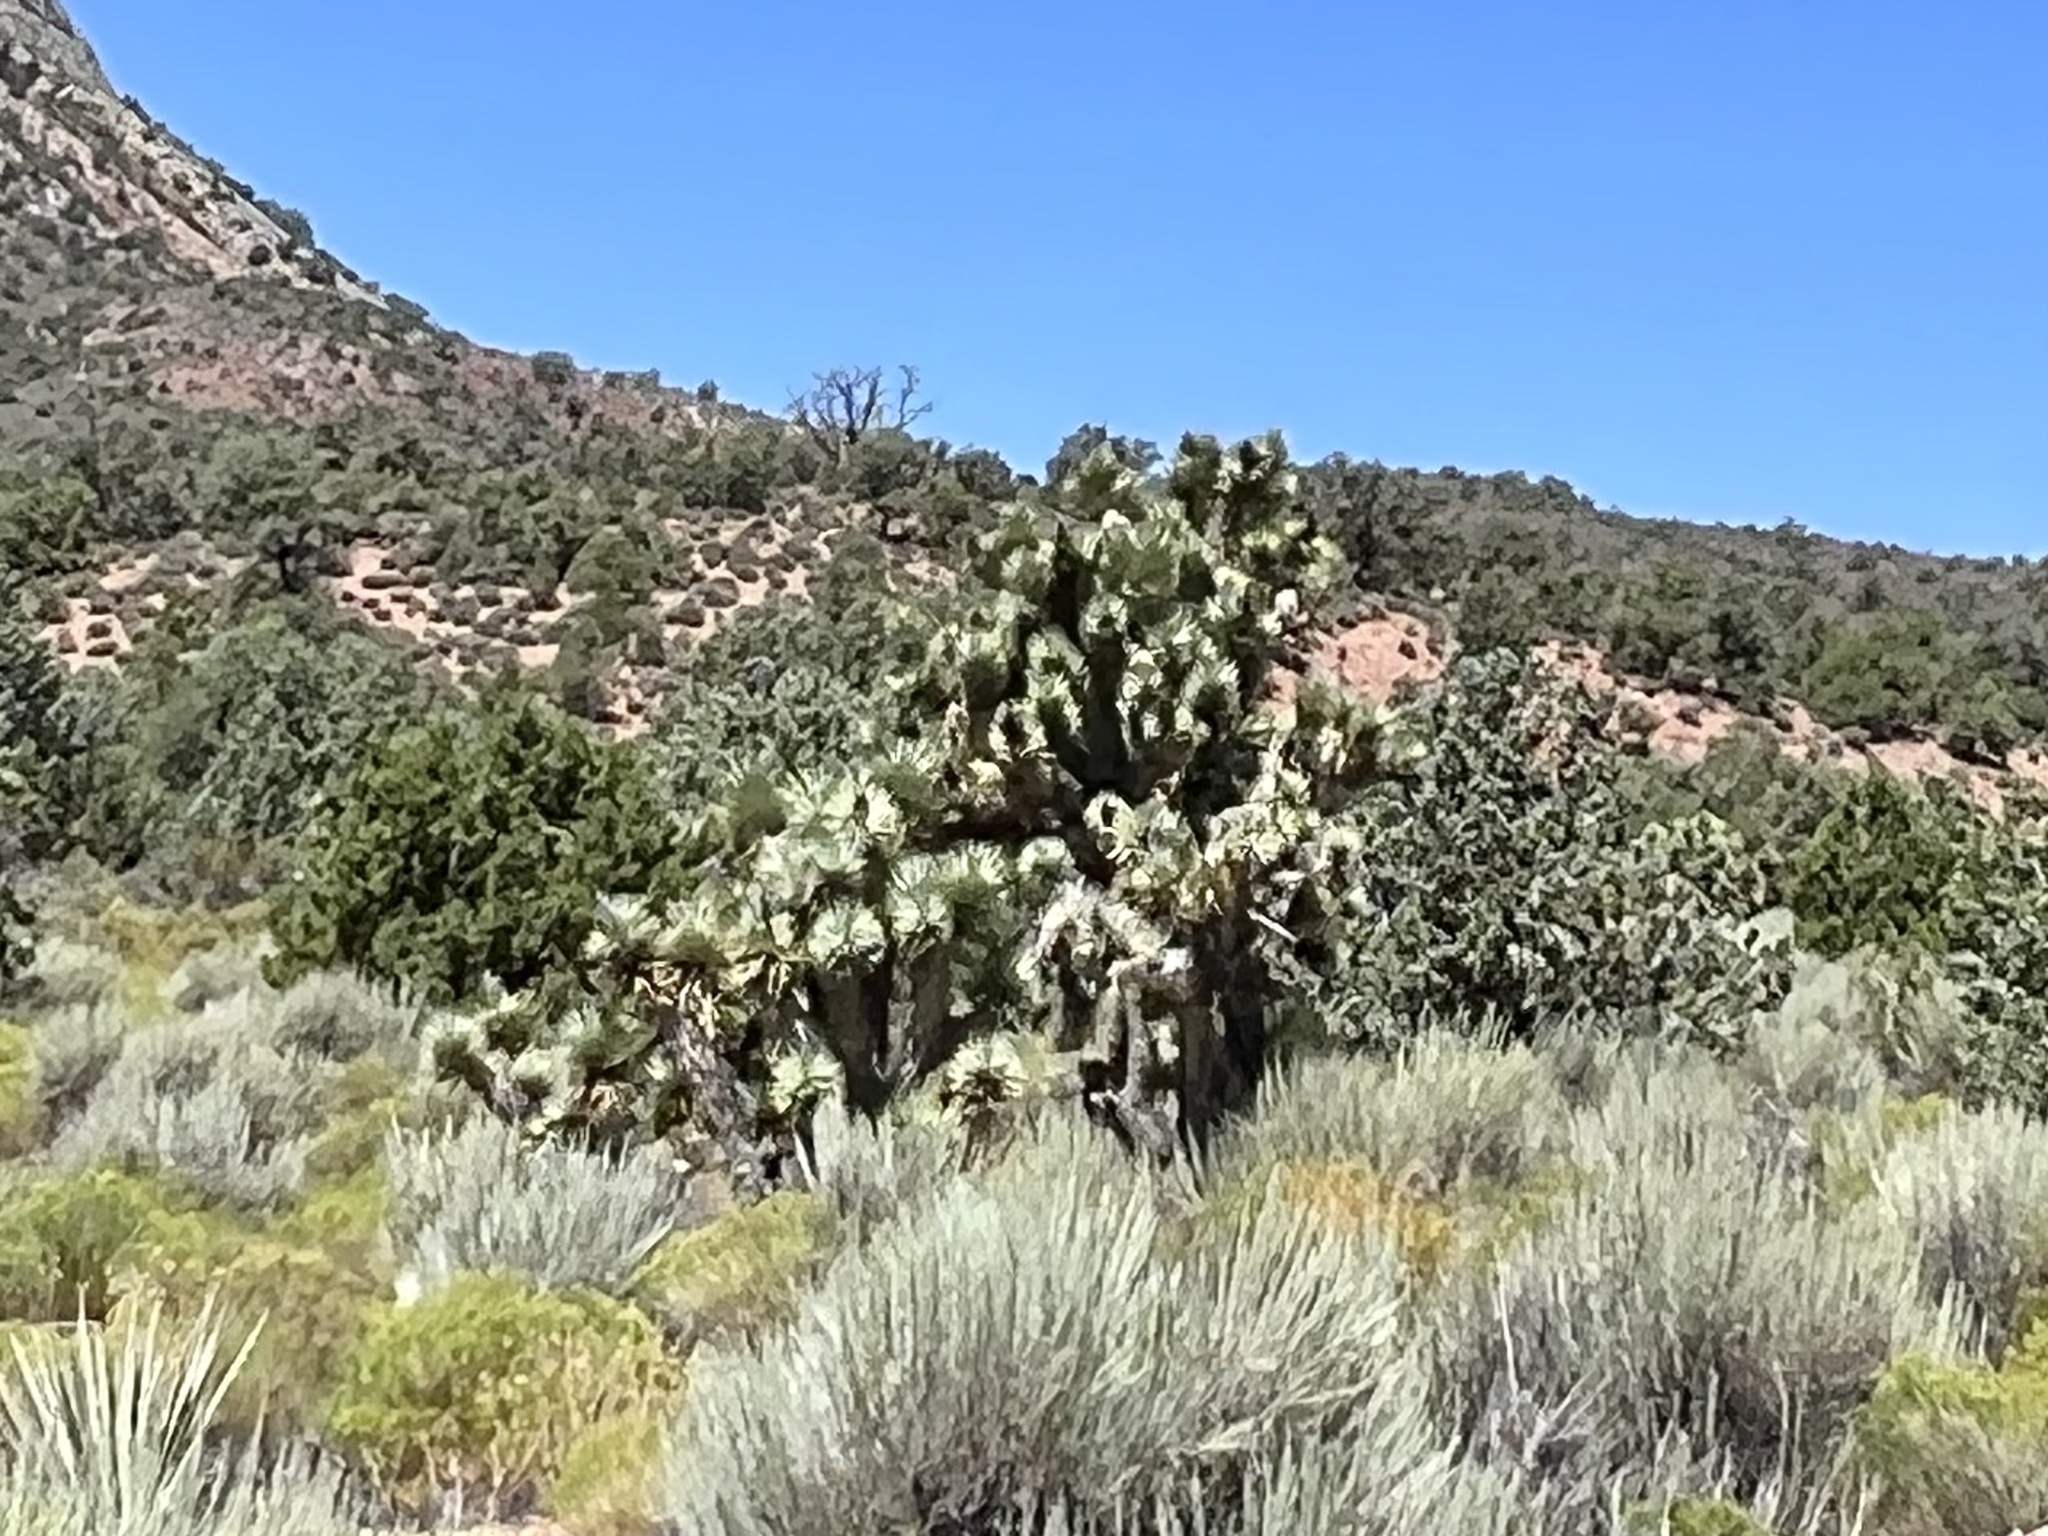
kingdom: Plantae
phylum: Tracheophyta
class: Liliopsida
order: Asparagales
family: Asparagaceae
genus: Yucca
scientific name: Yucca brevifolia
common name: Joshua tree
